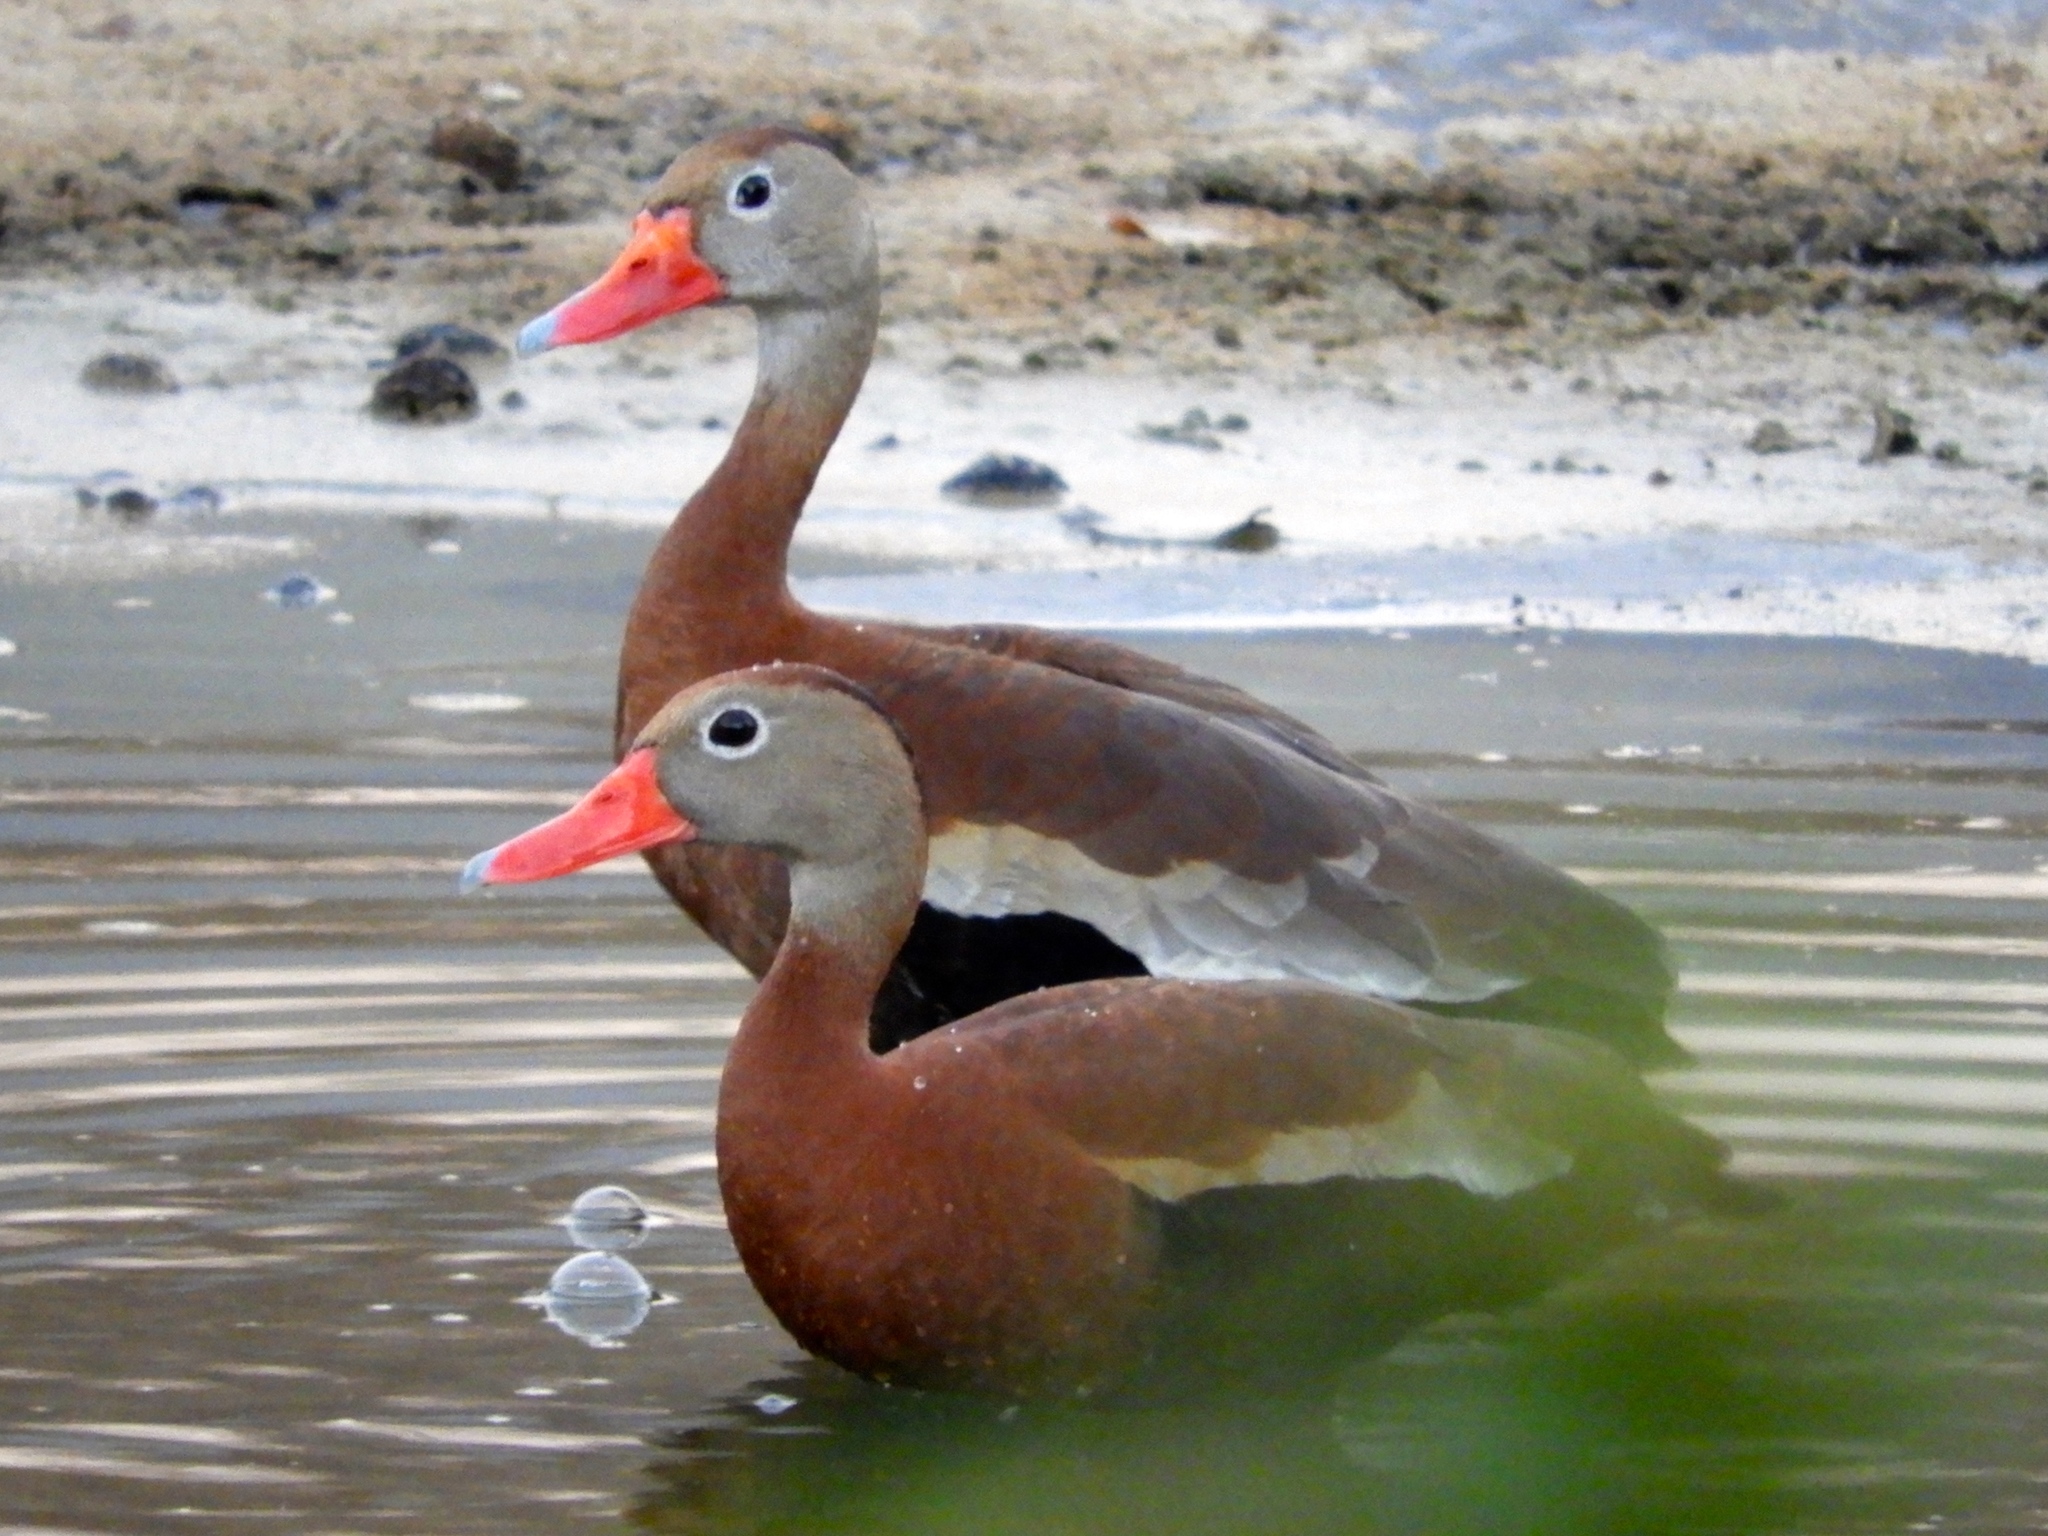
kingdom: Animalia
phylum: Chordata
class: Aves
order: Anseriformes
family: Anatidae
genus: Dendrocygna
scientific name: Dendrocygna autumnalis
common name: Black-bellied whistling duck
